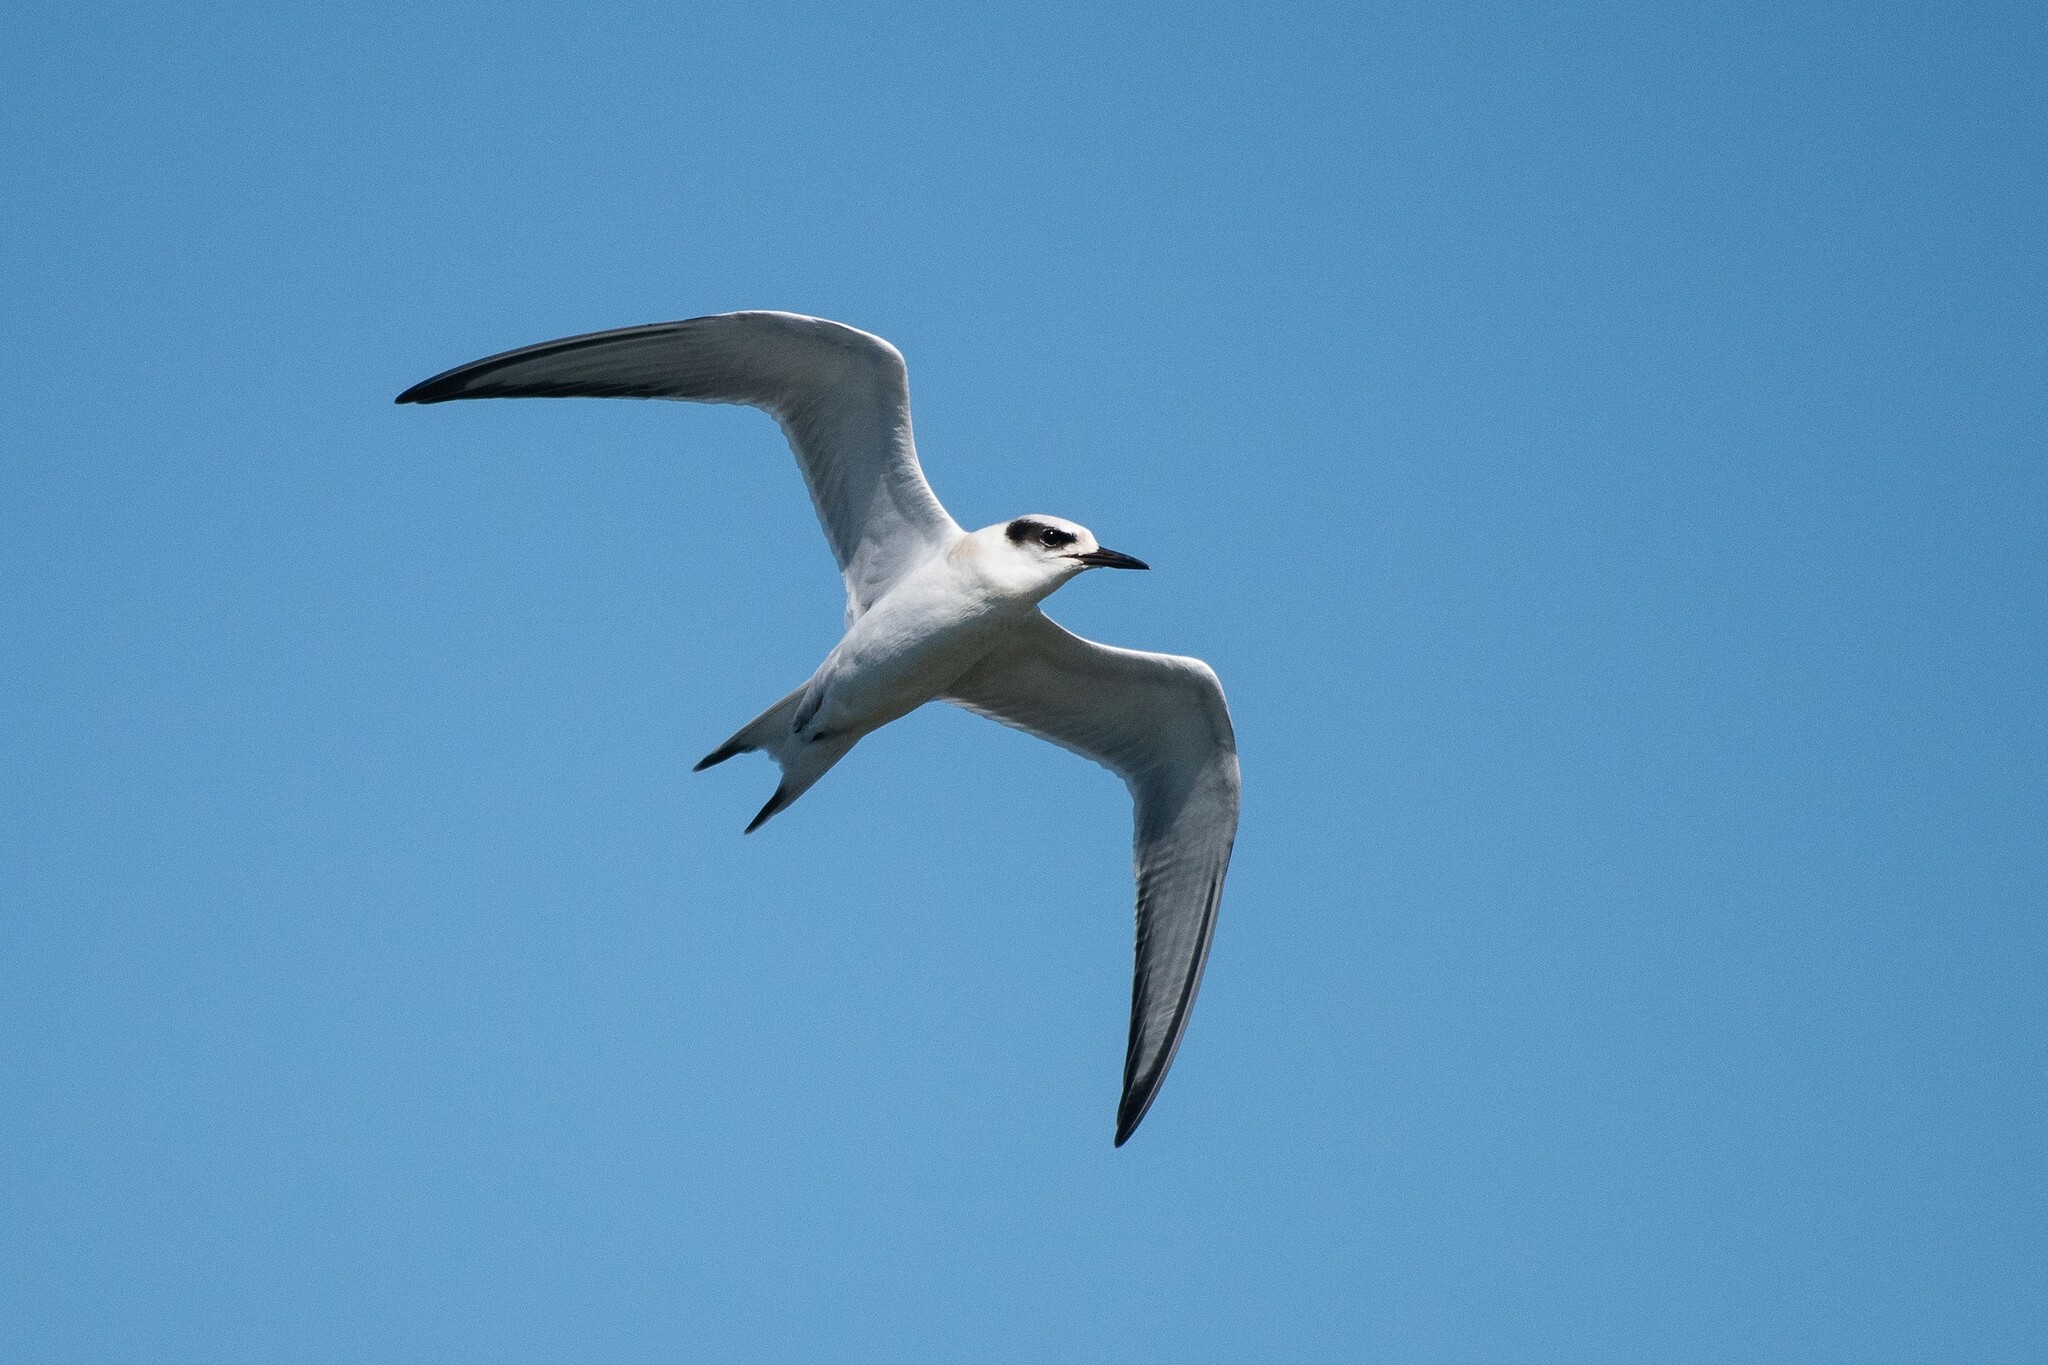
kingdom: Animalia
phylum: Chordata
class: Aves
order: Charadriiformes
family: Laridae
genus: Sterna
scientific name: Sterna forsteri
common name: Forster's tern
